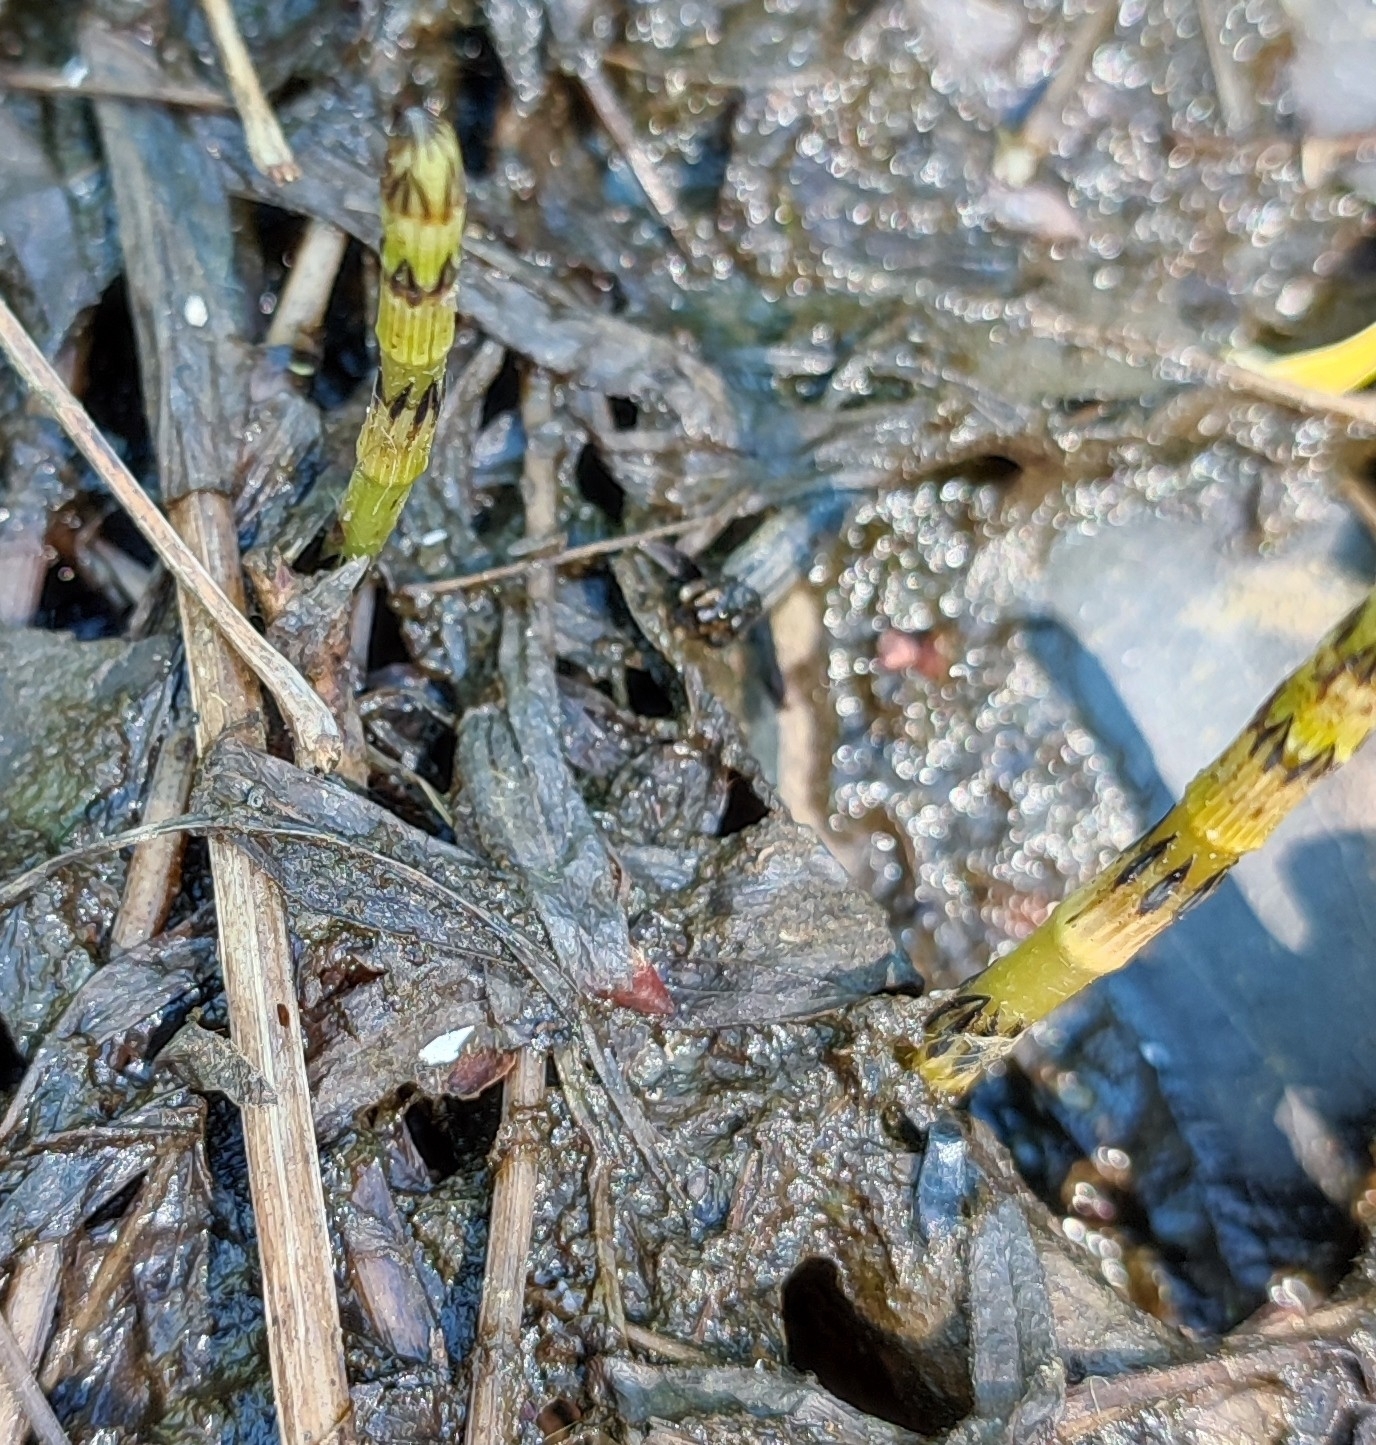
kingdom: Plantae
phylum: Tracheophyta
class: Polypodiopsida
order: Equisetales
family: Equisetaceae
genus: Equisetum
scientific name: Equisetum fluviatile
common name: Water horsetail
